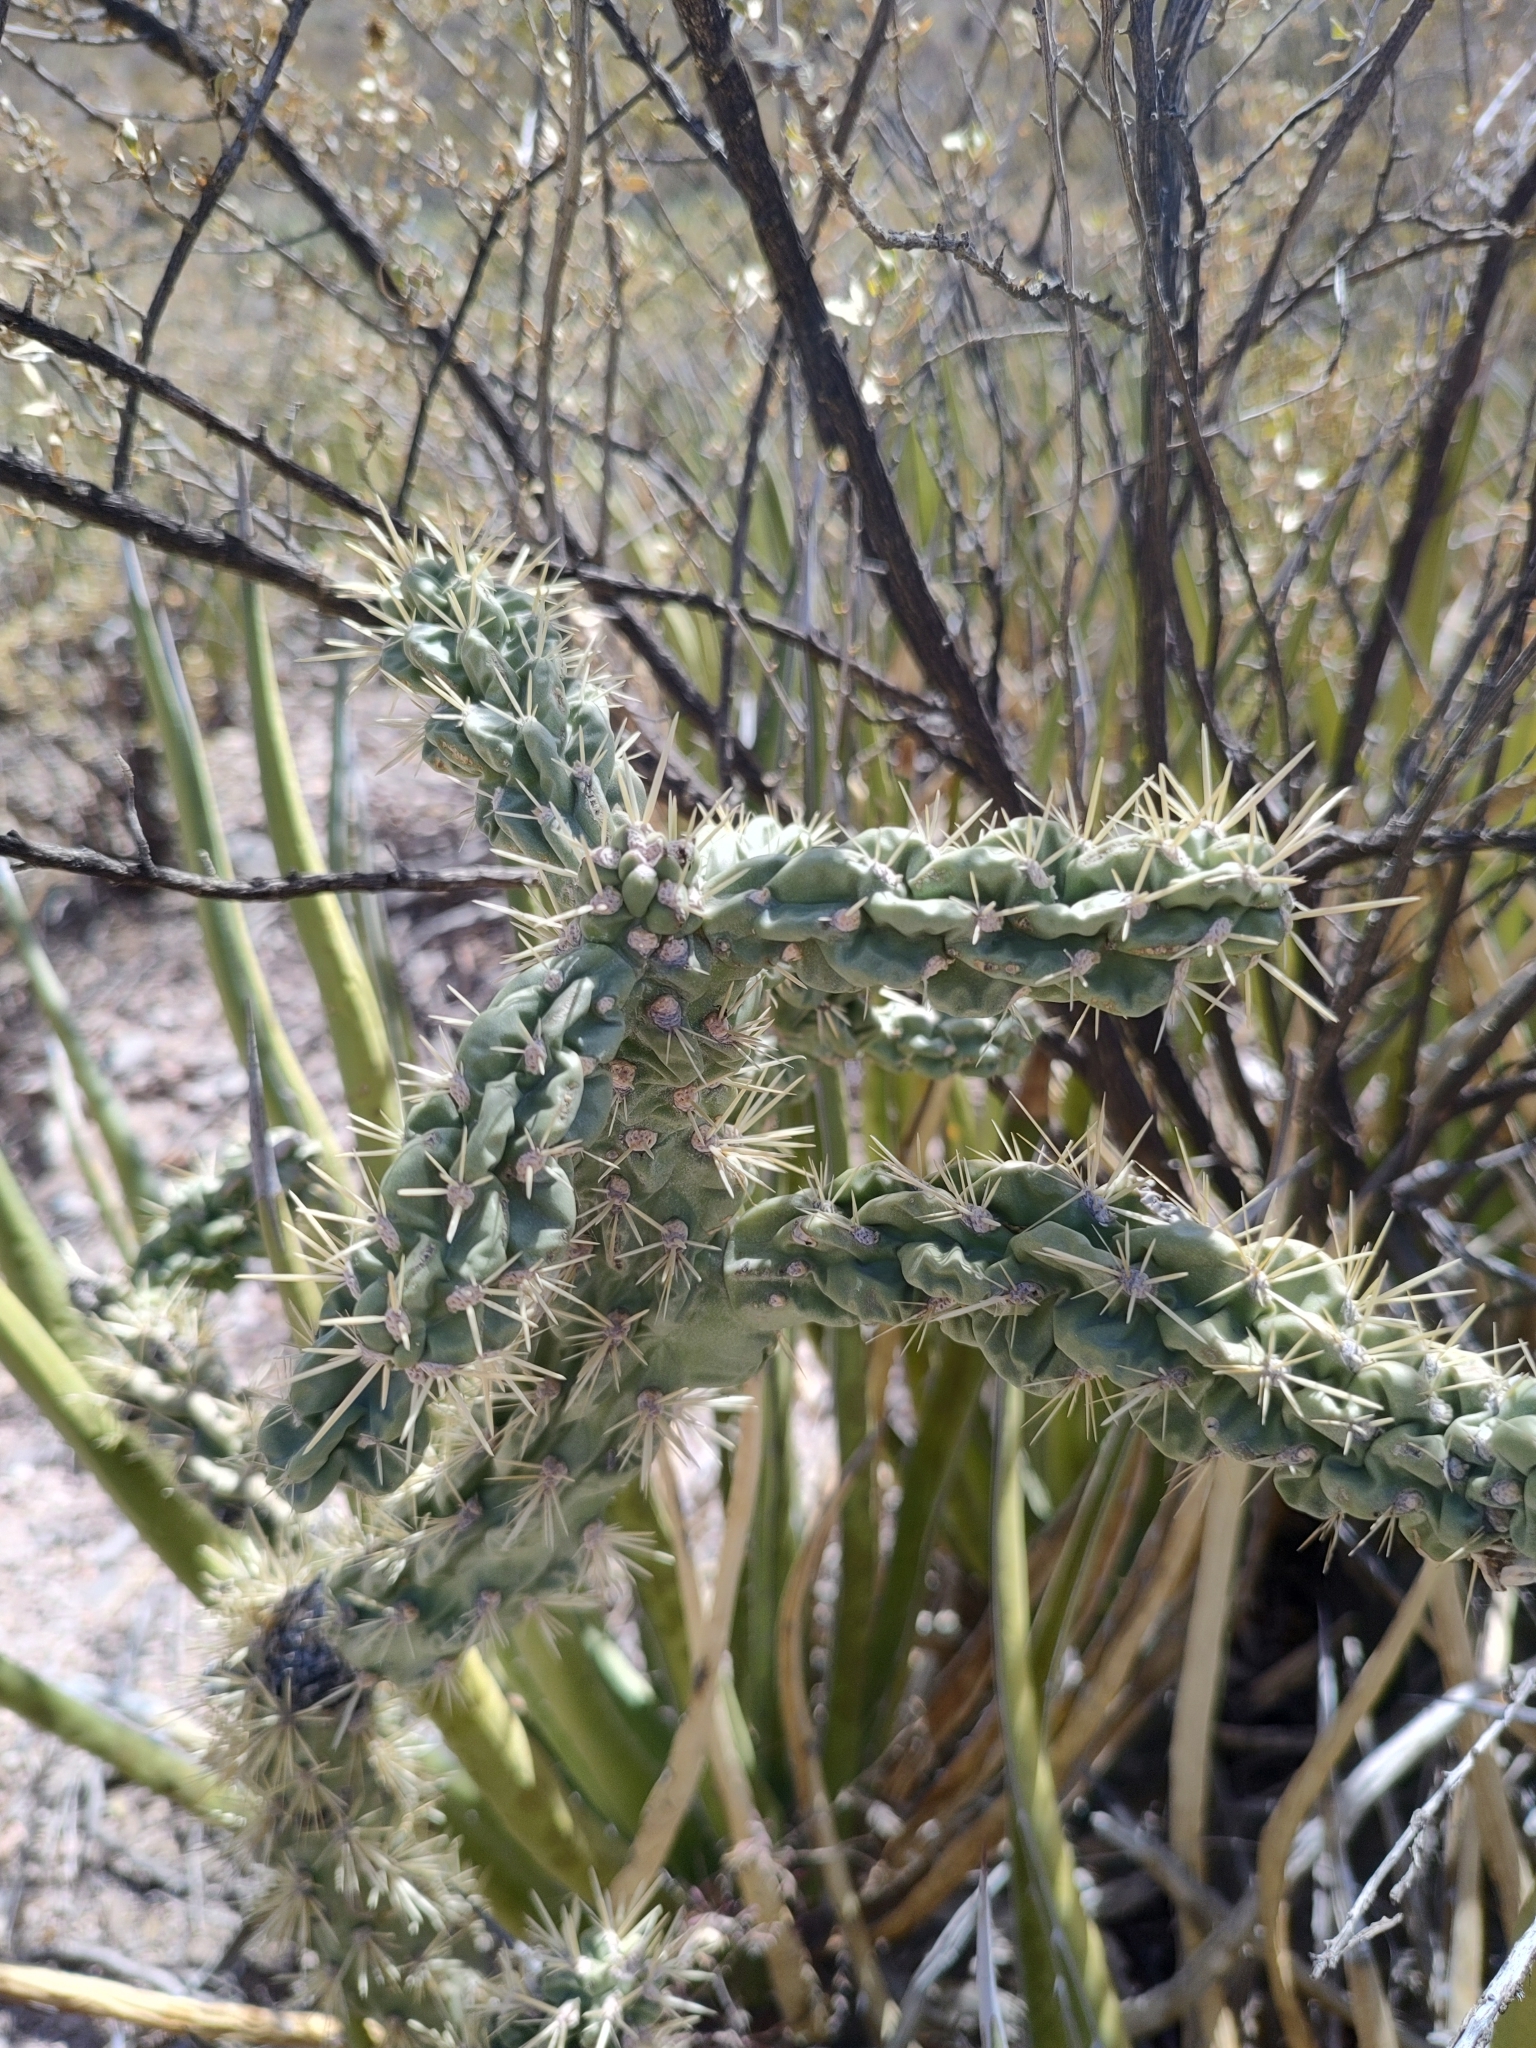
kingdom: Plantae
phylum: Tracheophyta
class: Magnoliopsida
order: Caryophyllales
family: Cactaceae
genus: Cylindropuntia
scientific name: Cylindropuntia imbricata
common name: Candelabrum cactus
